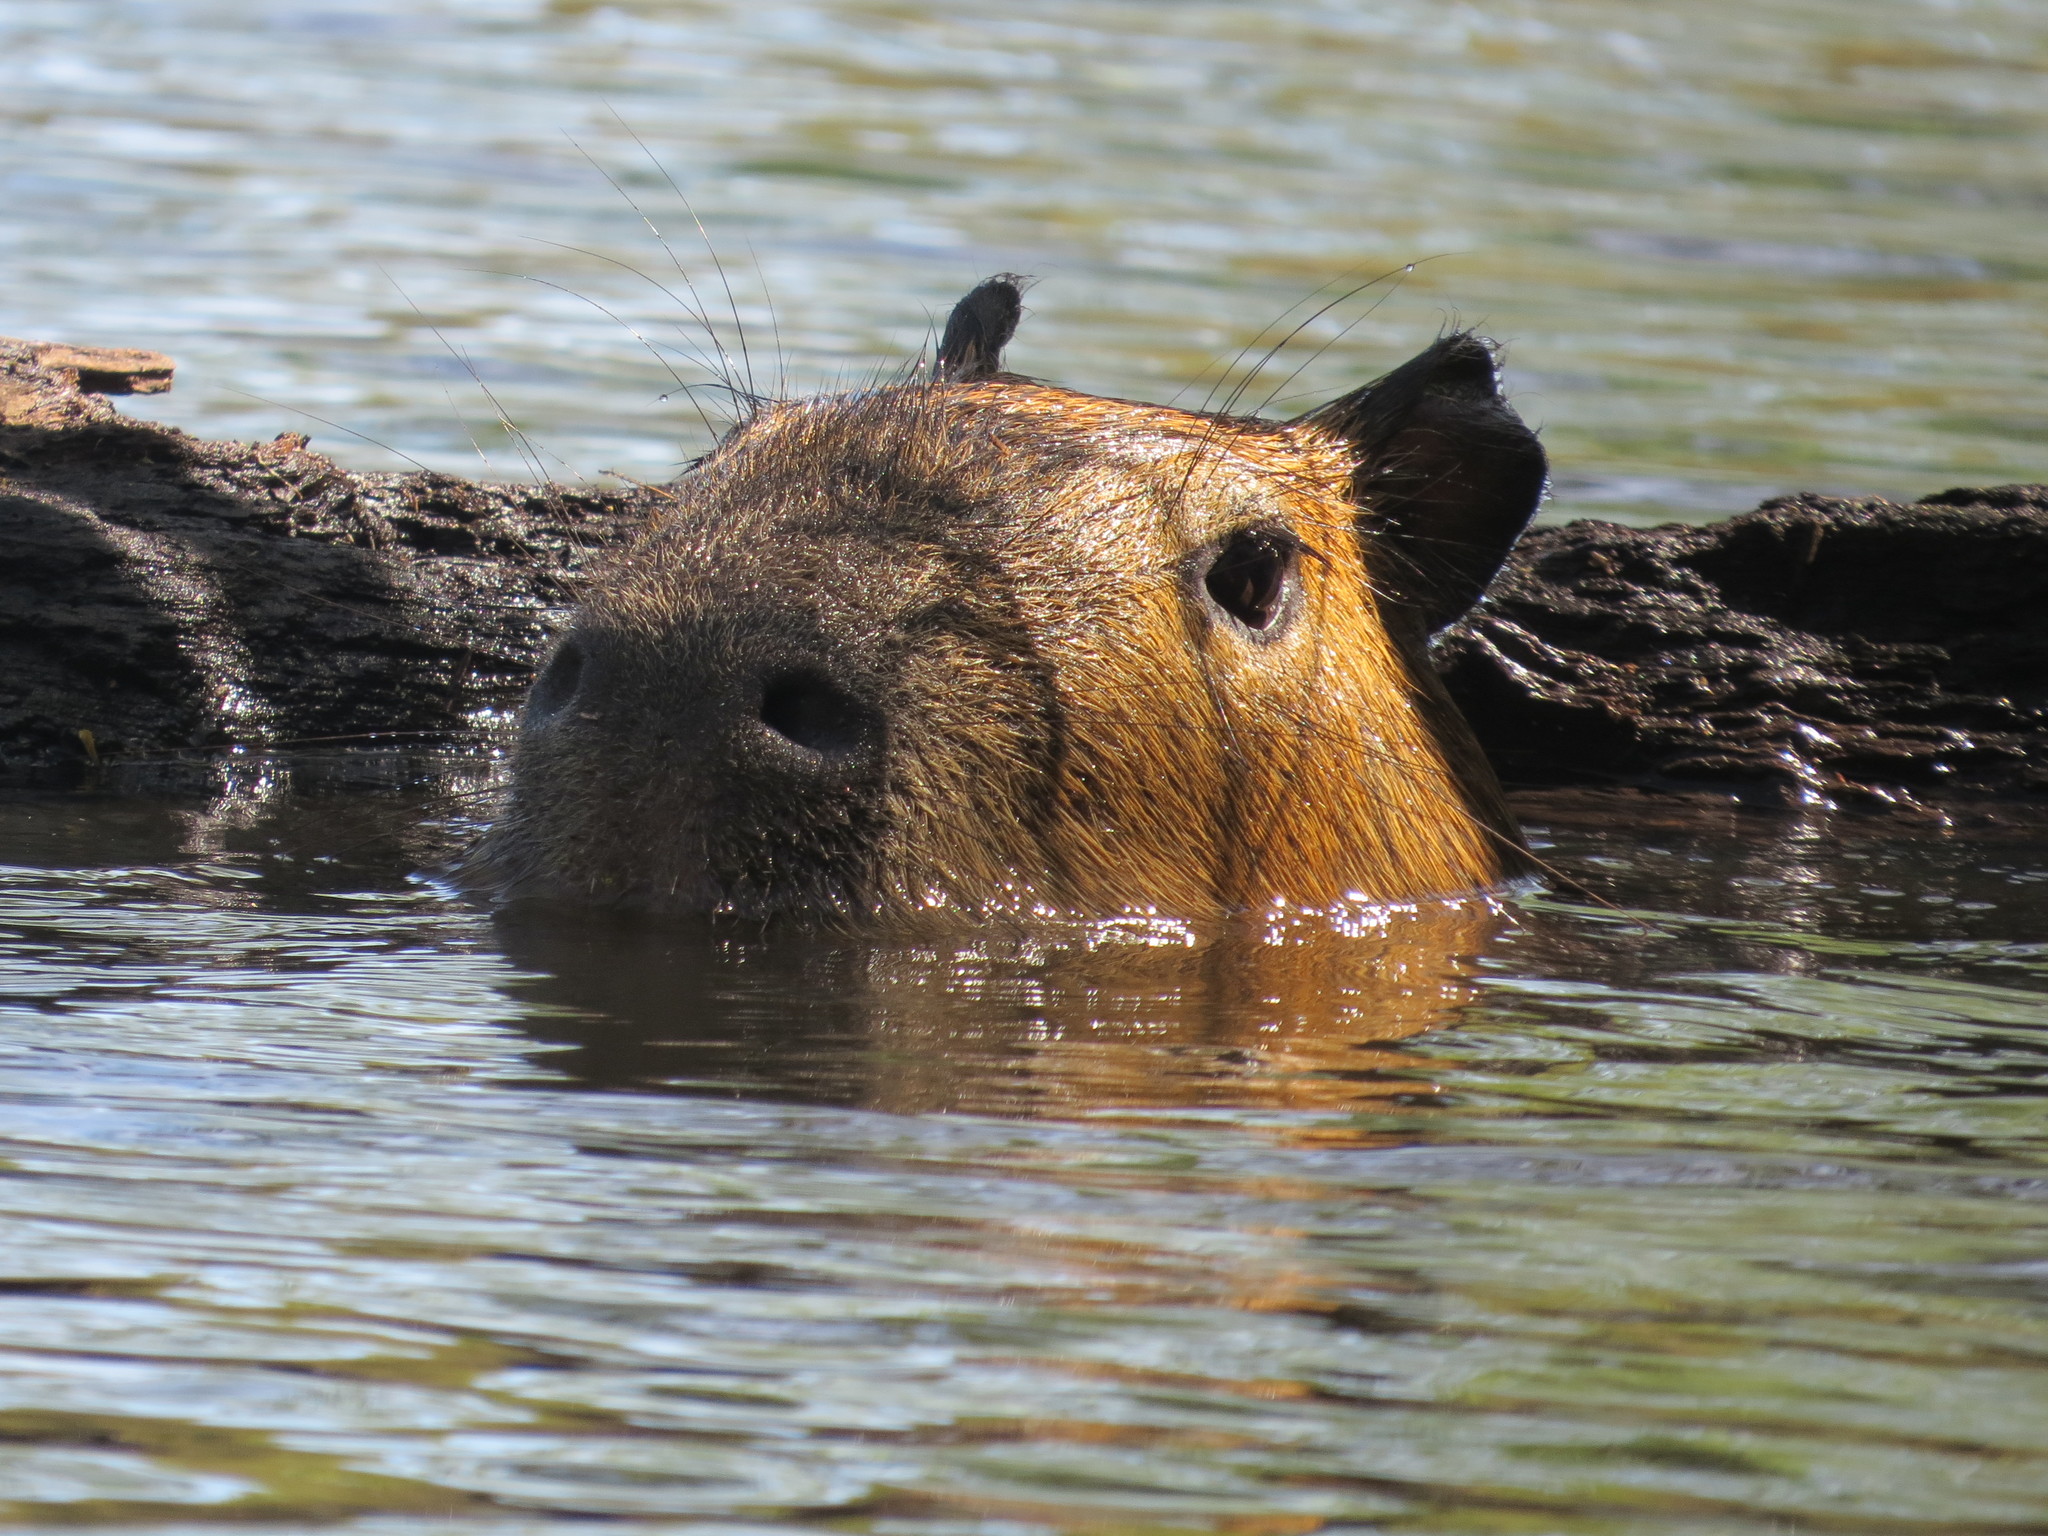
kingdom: Animalia
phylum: Chordata
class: Mammalia
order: Rodentia
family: Caviidae
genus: Hydrochoerus
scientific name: Hydrochoerus hydrochaeris
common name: Capybara
